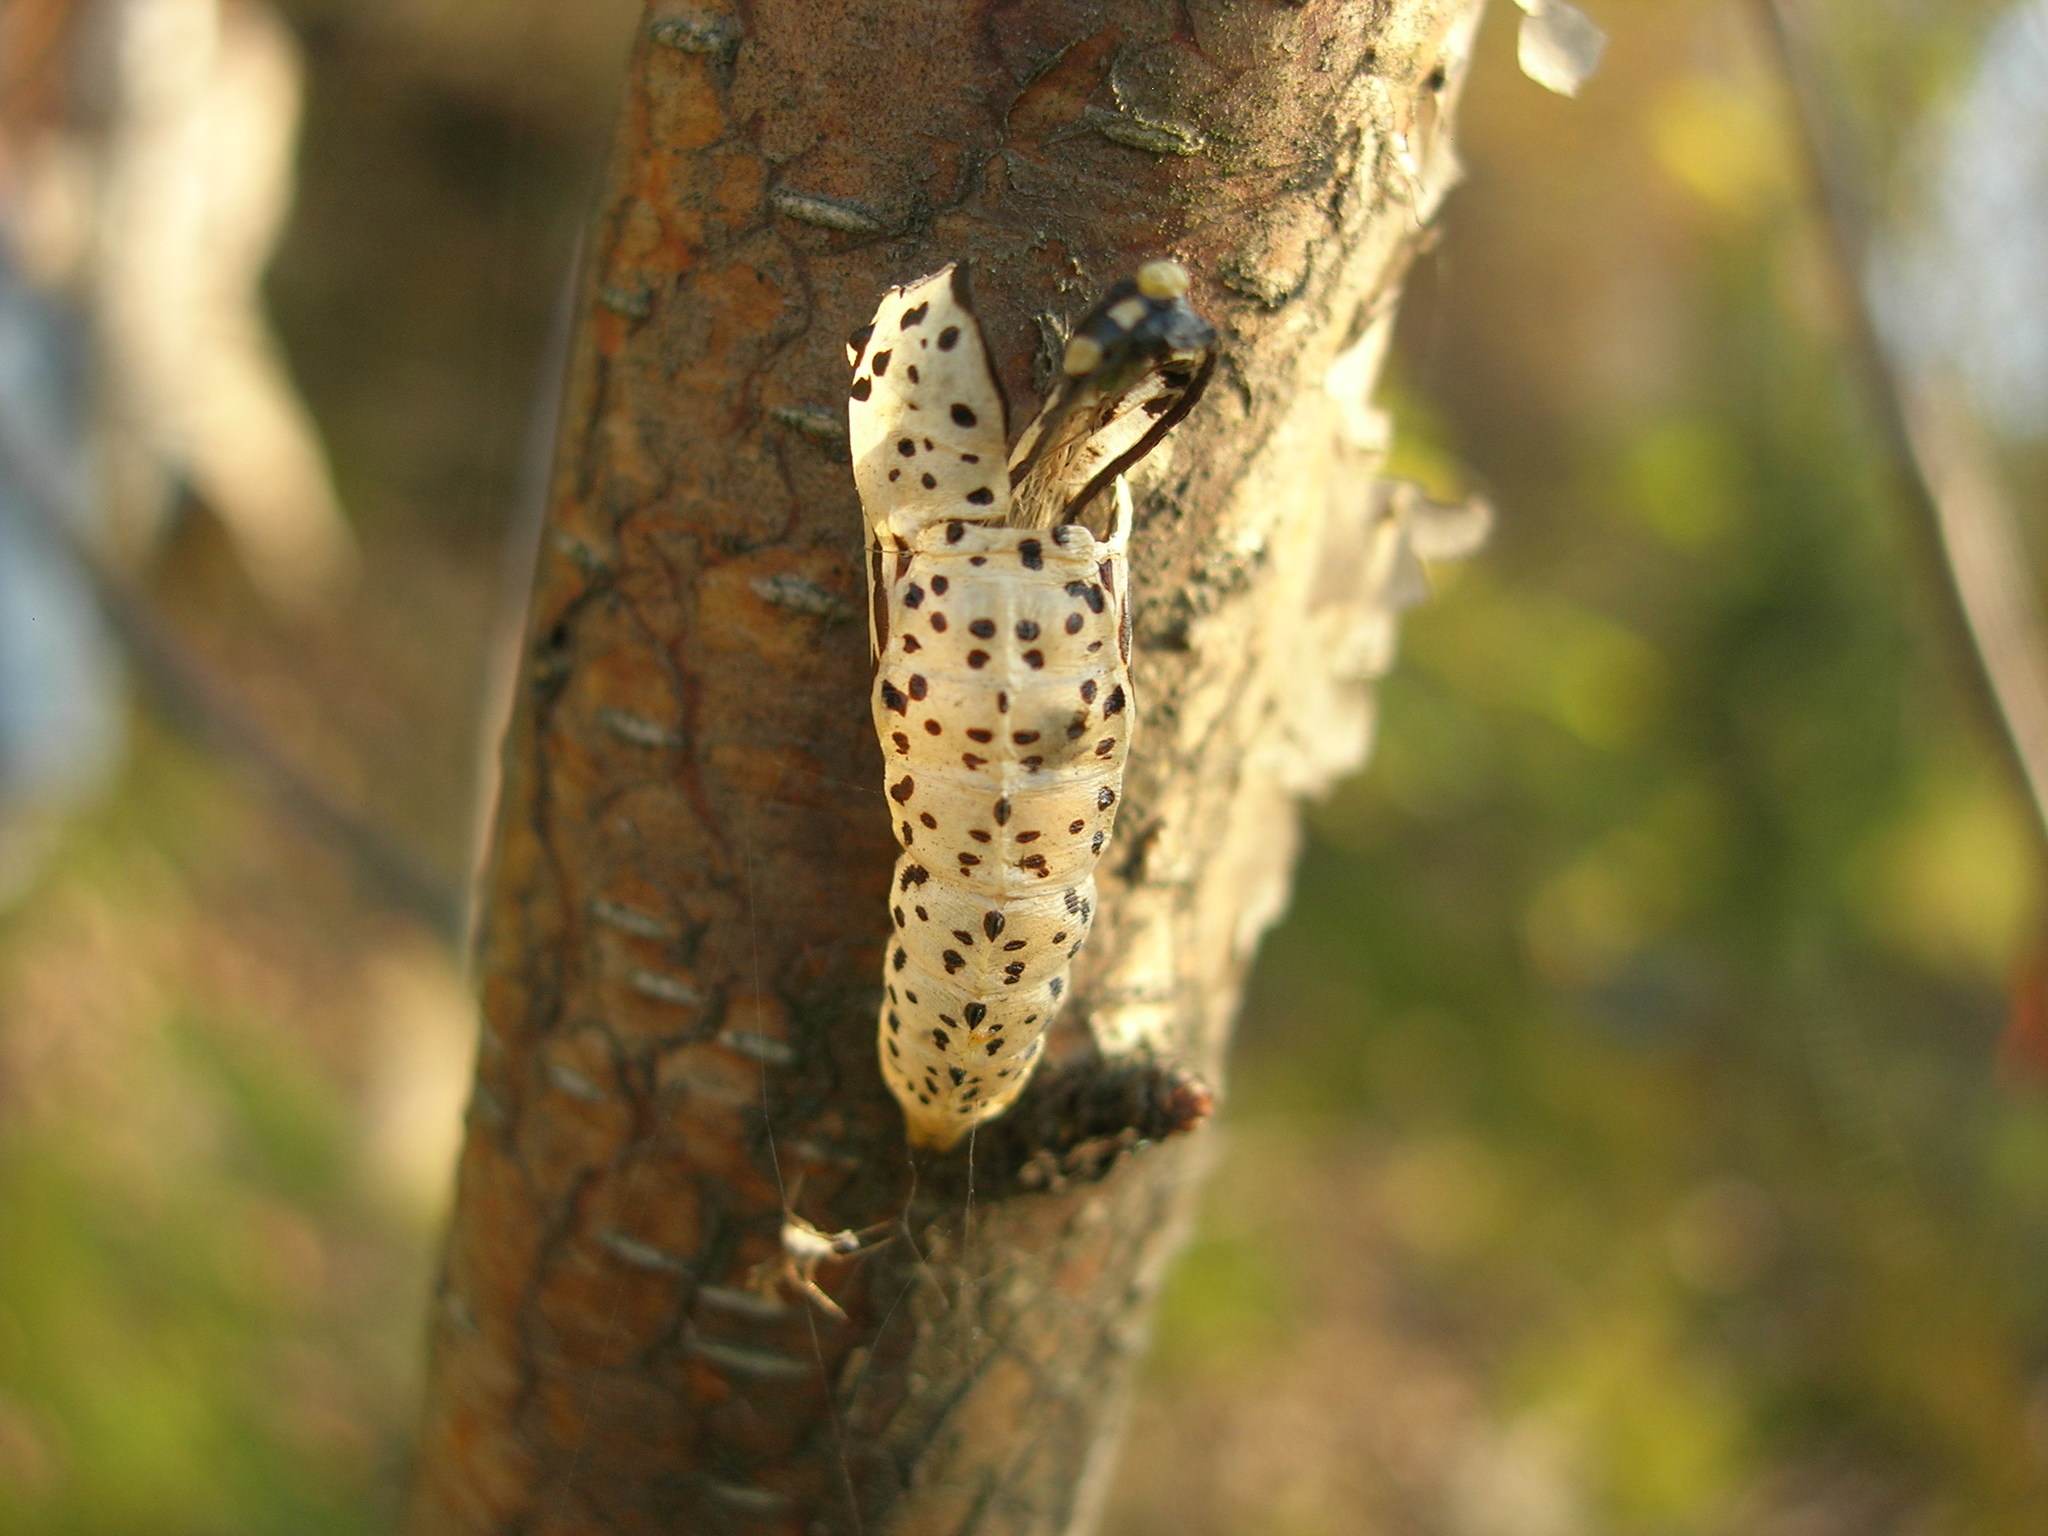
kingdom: Animalia
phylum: Arthropoda
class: Insecta
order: Lepidoptera
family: Pieridae
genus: Aporia
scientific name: Aporia crataegi
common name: Black-veined white
